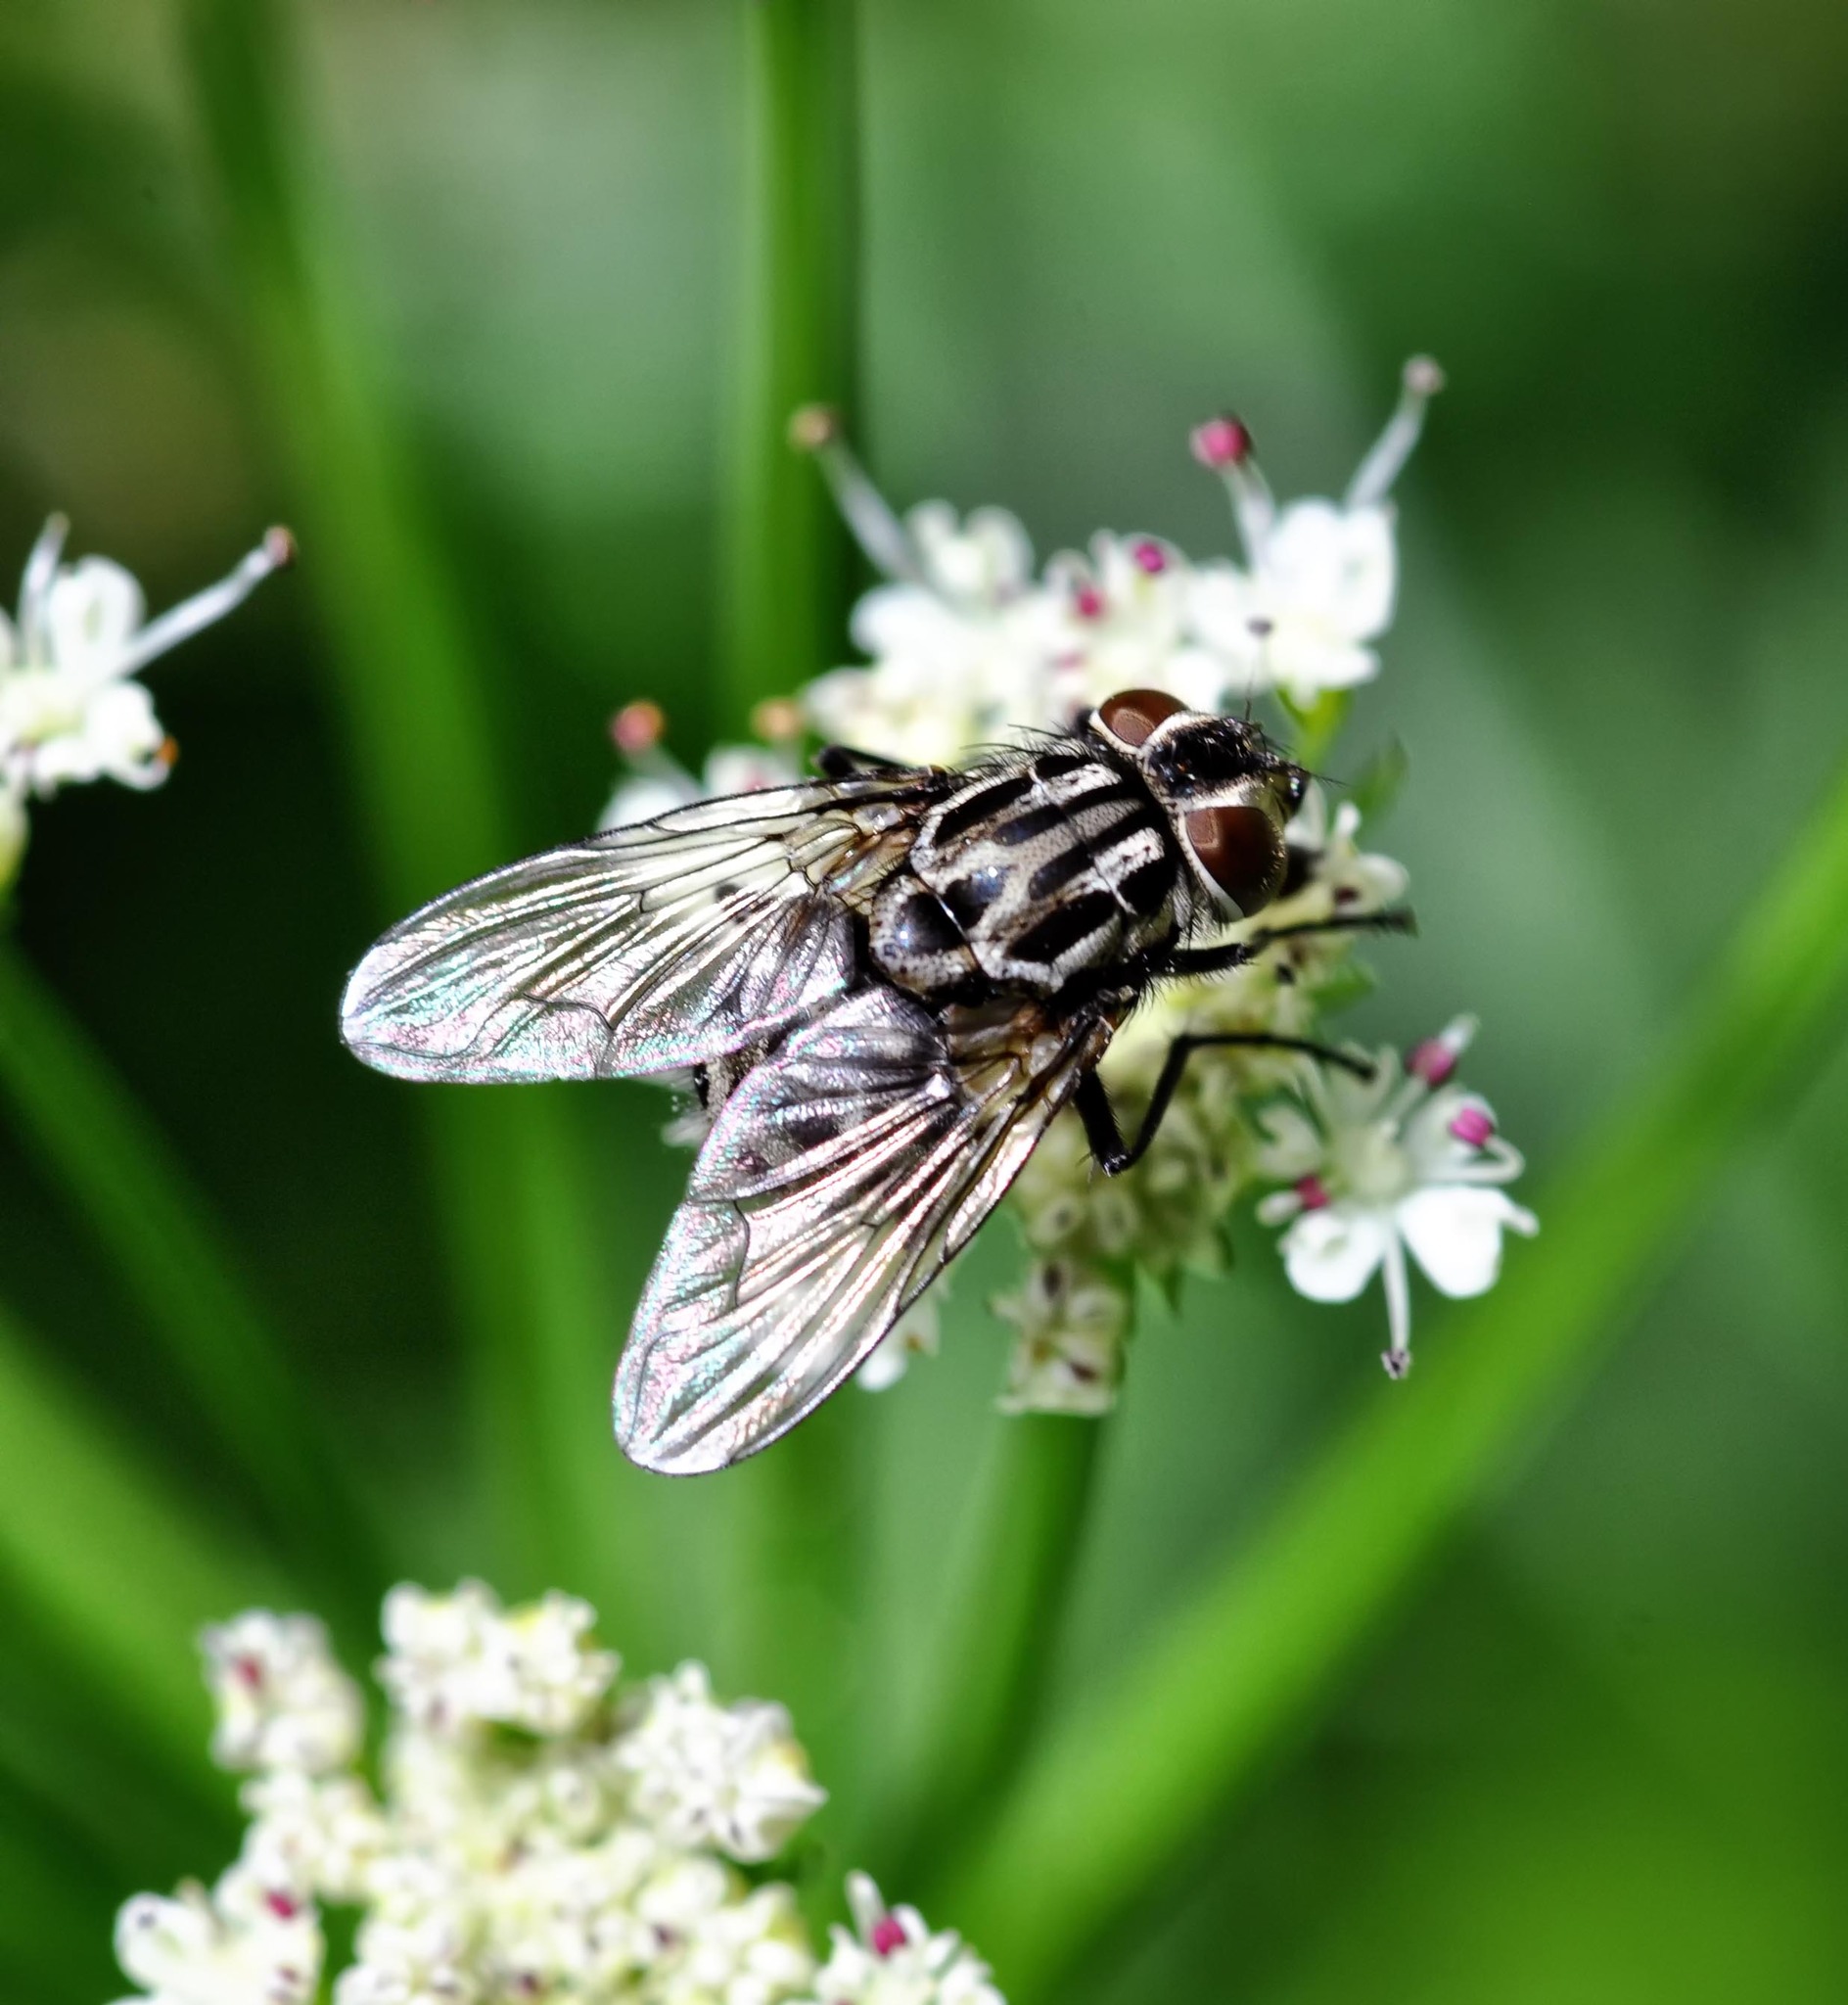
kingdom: Animalia
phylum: Arthropoda
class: Insecta
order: Diptera
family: Muscidae
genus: Graphomya
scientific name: Graphomya maculata
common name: Muscid fly
